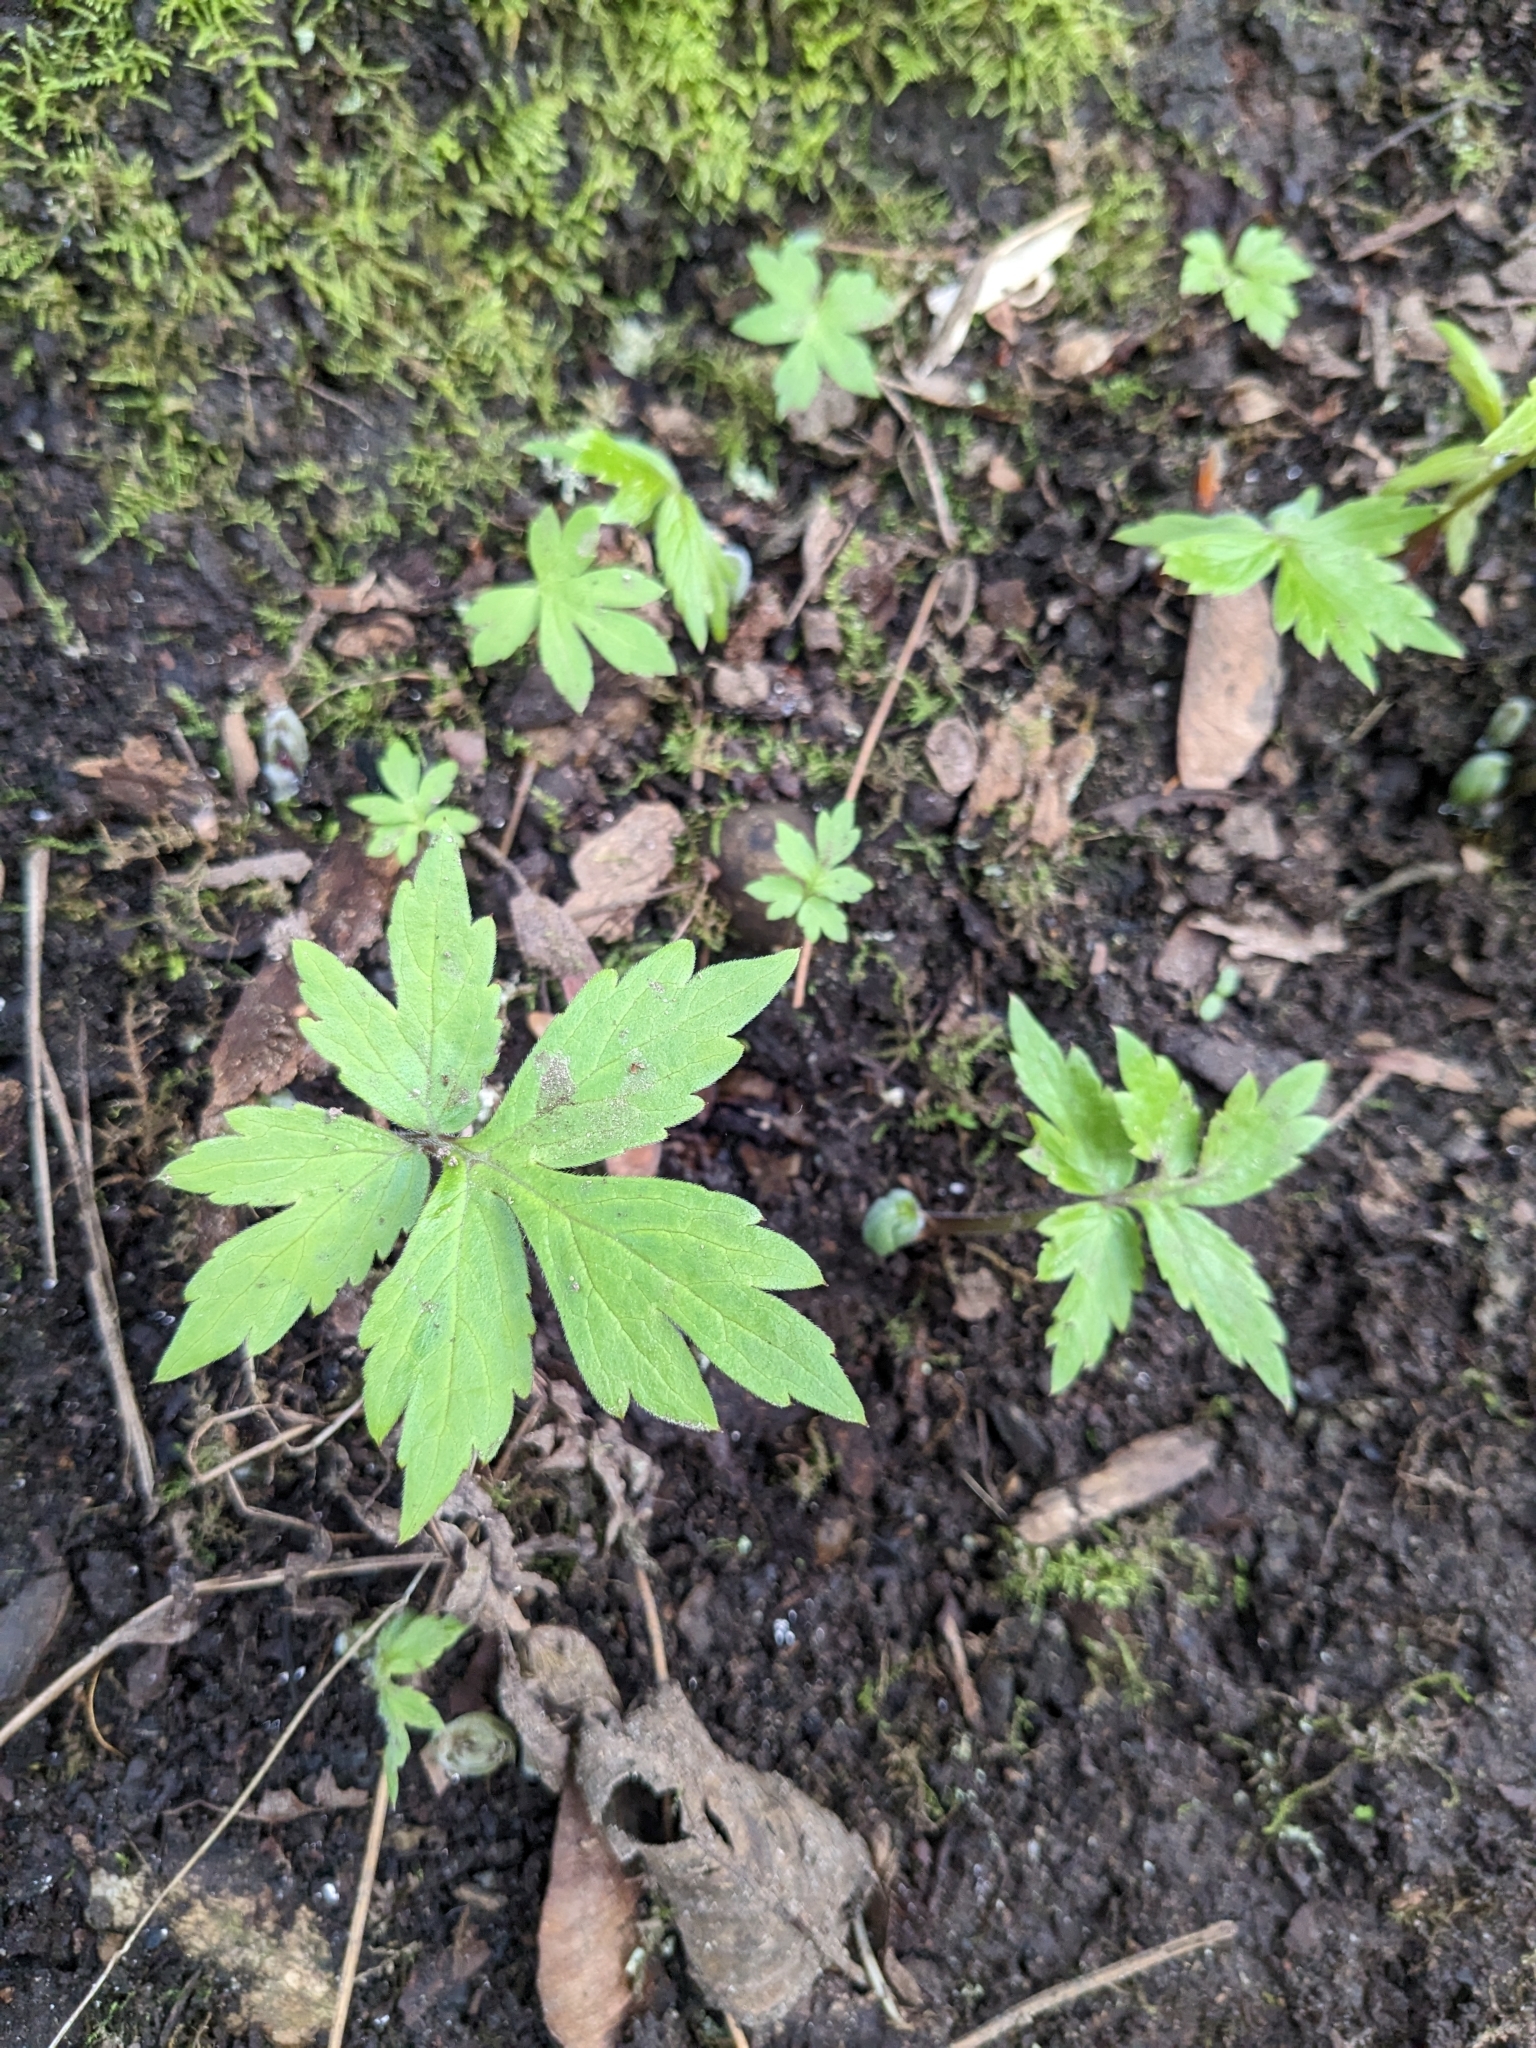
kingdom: Plantae
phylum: Tracheophyta
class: Magnoliopsida
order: Boraginales
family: Hydrophyllaceae
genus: Hydrophyllum
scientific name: Hydrophyllum tenuipes
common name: Pacific waterleaf
